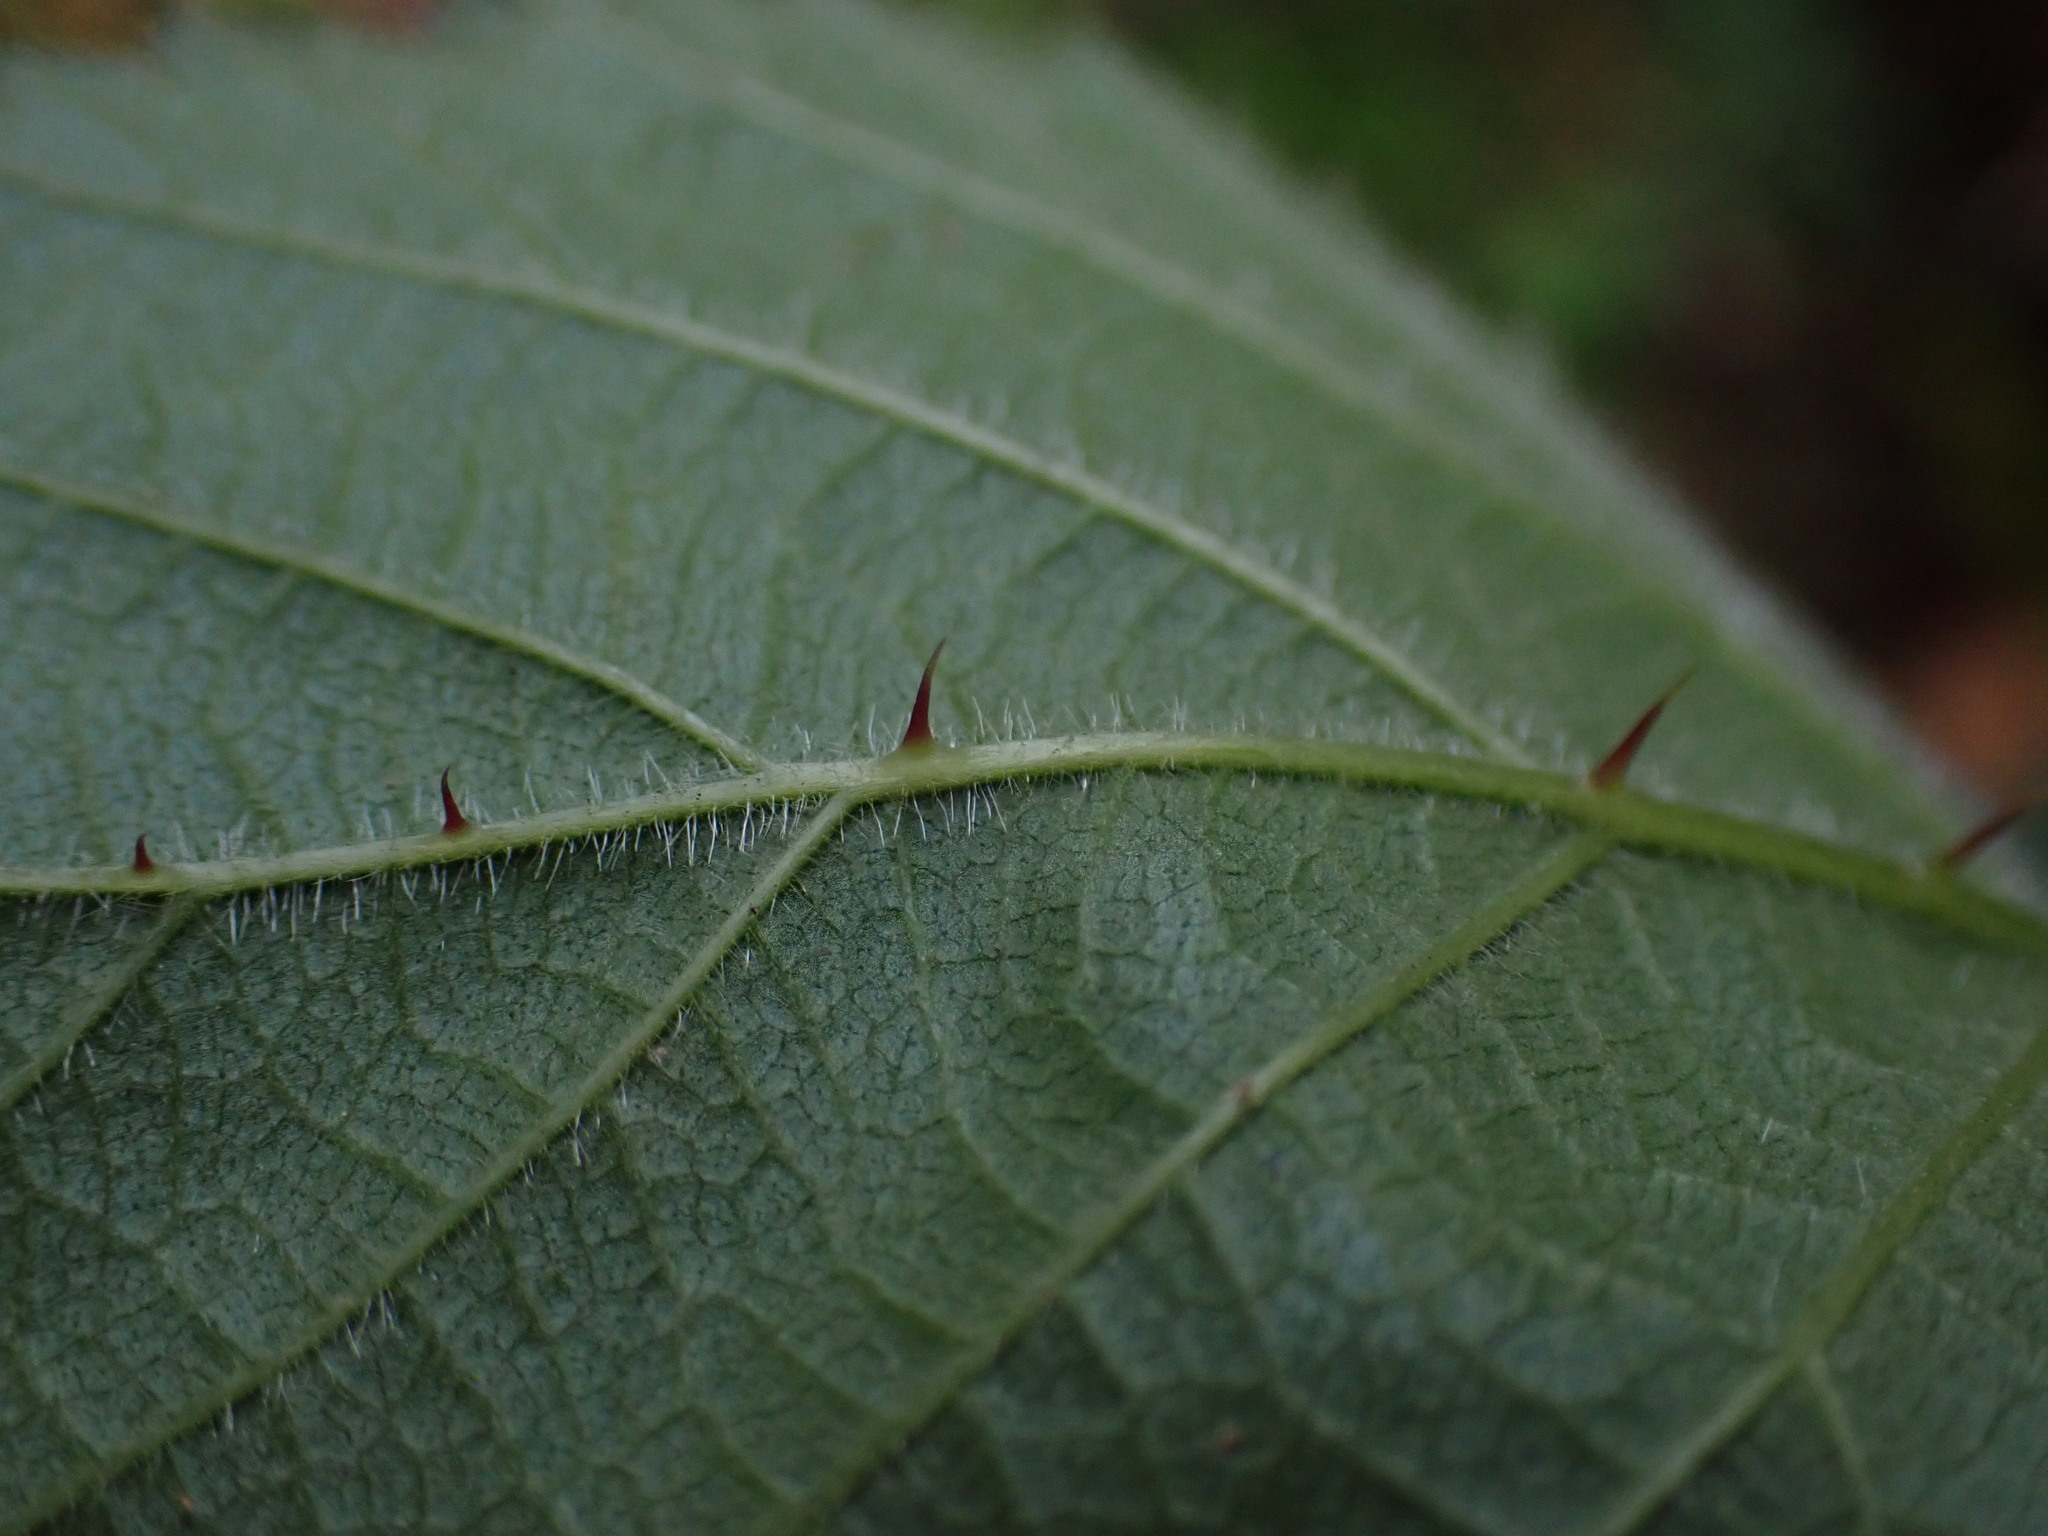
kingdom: Plantae
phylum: Tracheophyta
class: Magnoliopsida
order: Rosales
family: Rosaceae
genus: Rubus
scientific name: Rubus fruticosus
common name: Blackberry, bramble
